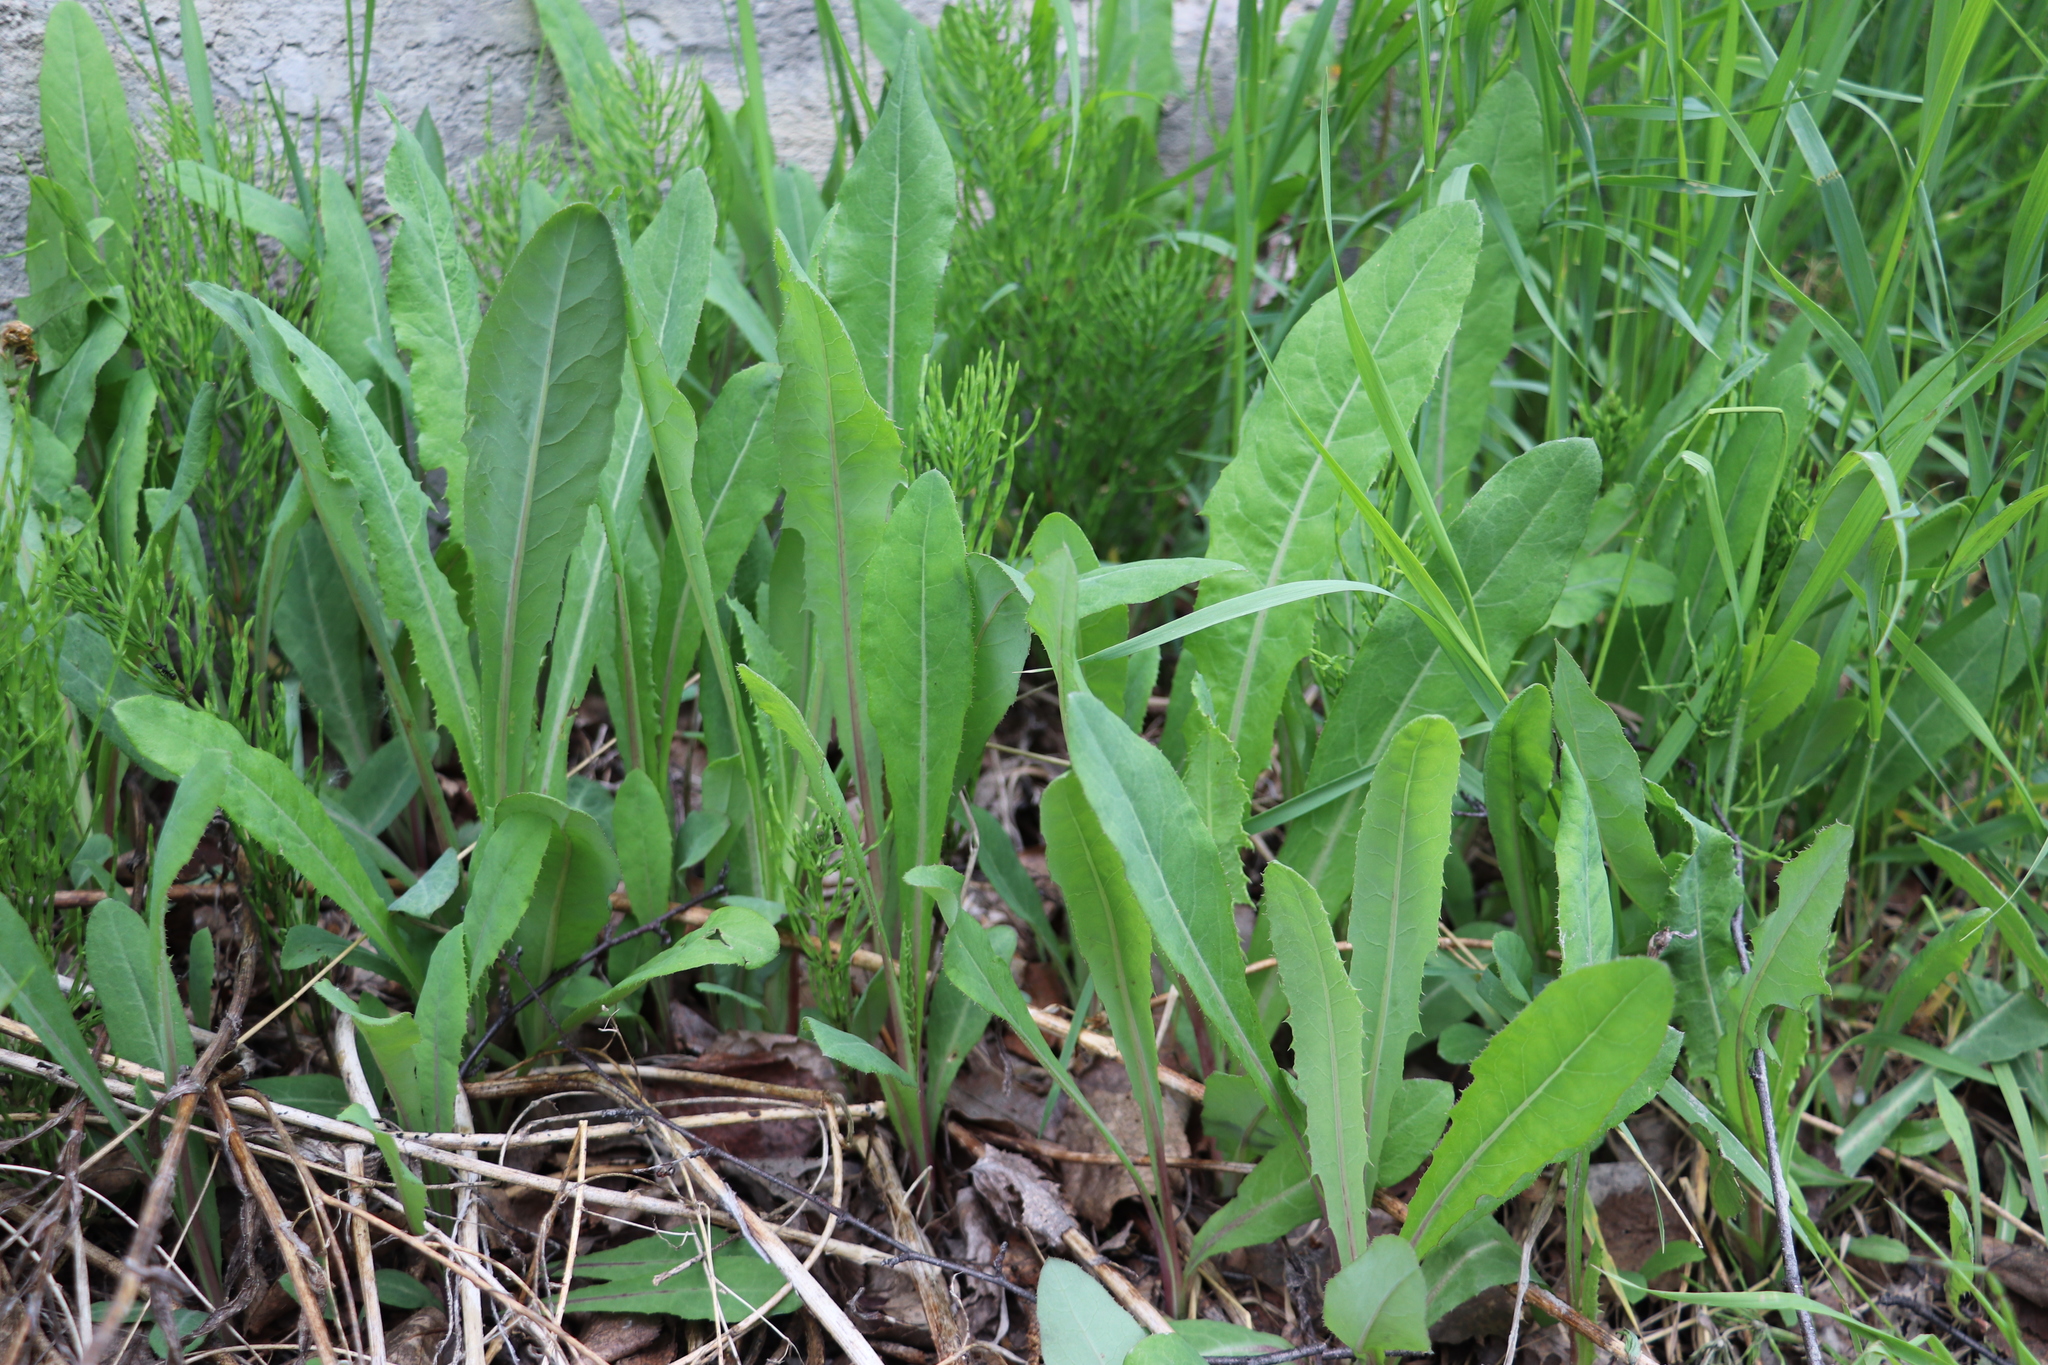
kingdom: Plantae
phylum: Tracheophyta
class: Magnoliopsida
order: Asterales
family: Asteraceae
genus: Sonchus
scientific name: Sonchus arvensis
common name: Perennial sow-thistle
